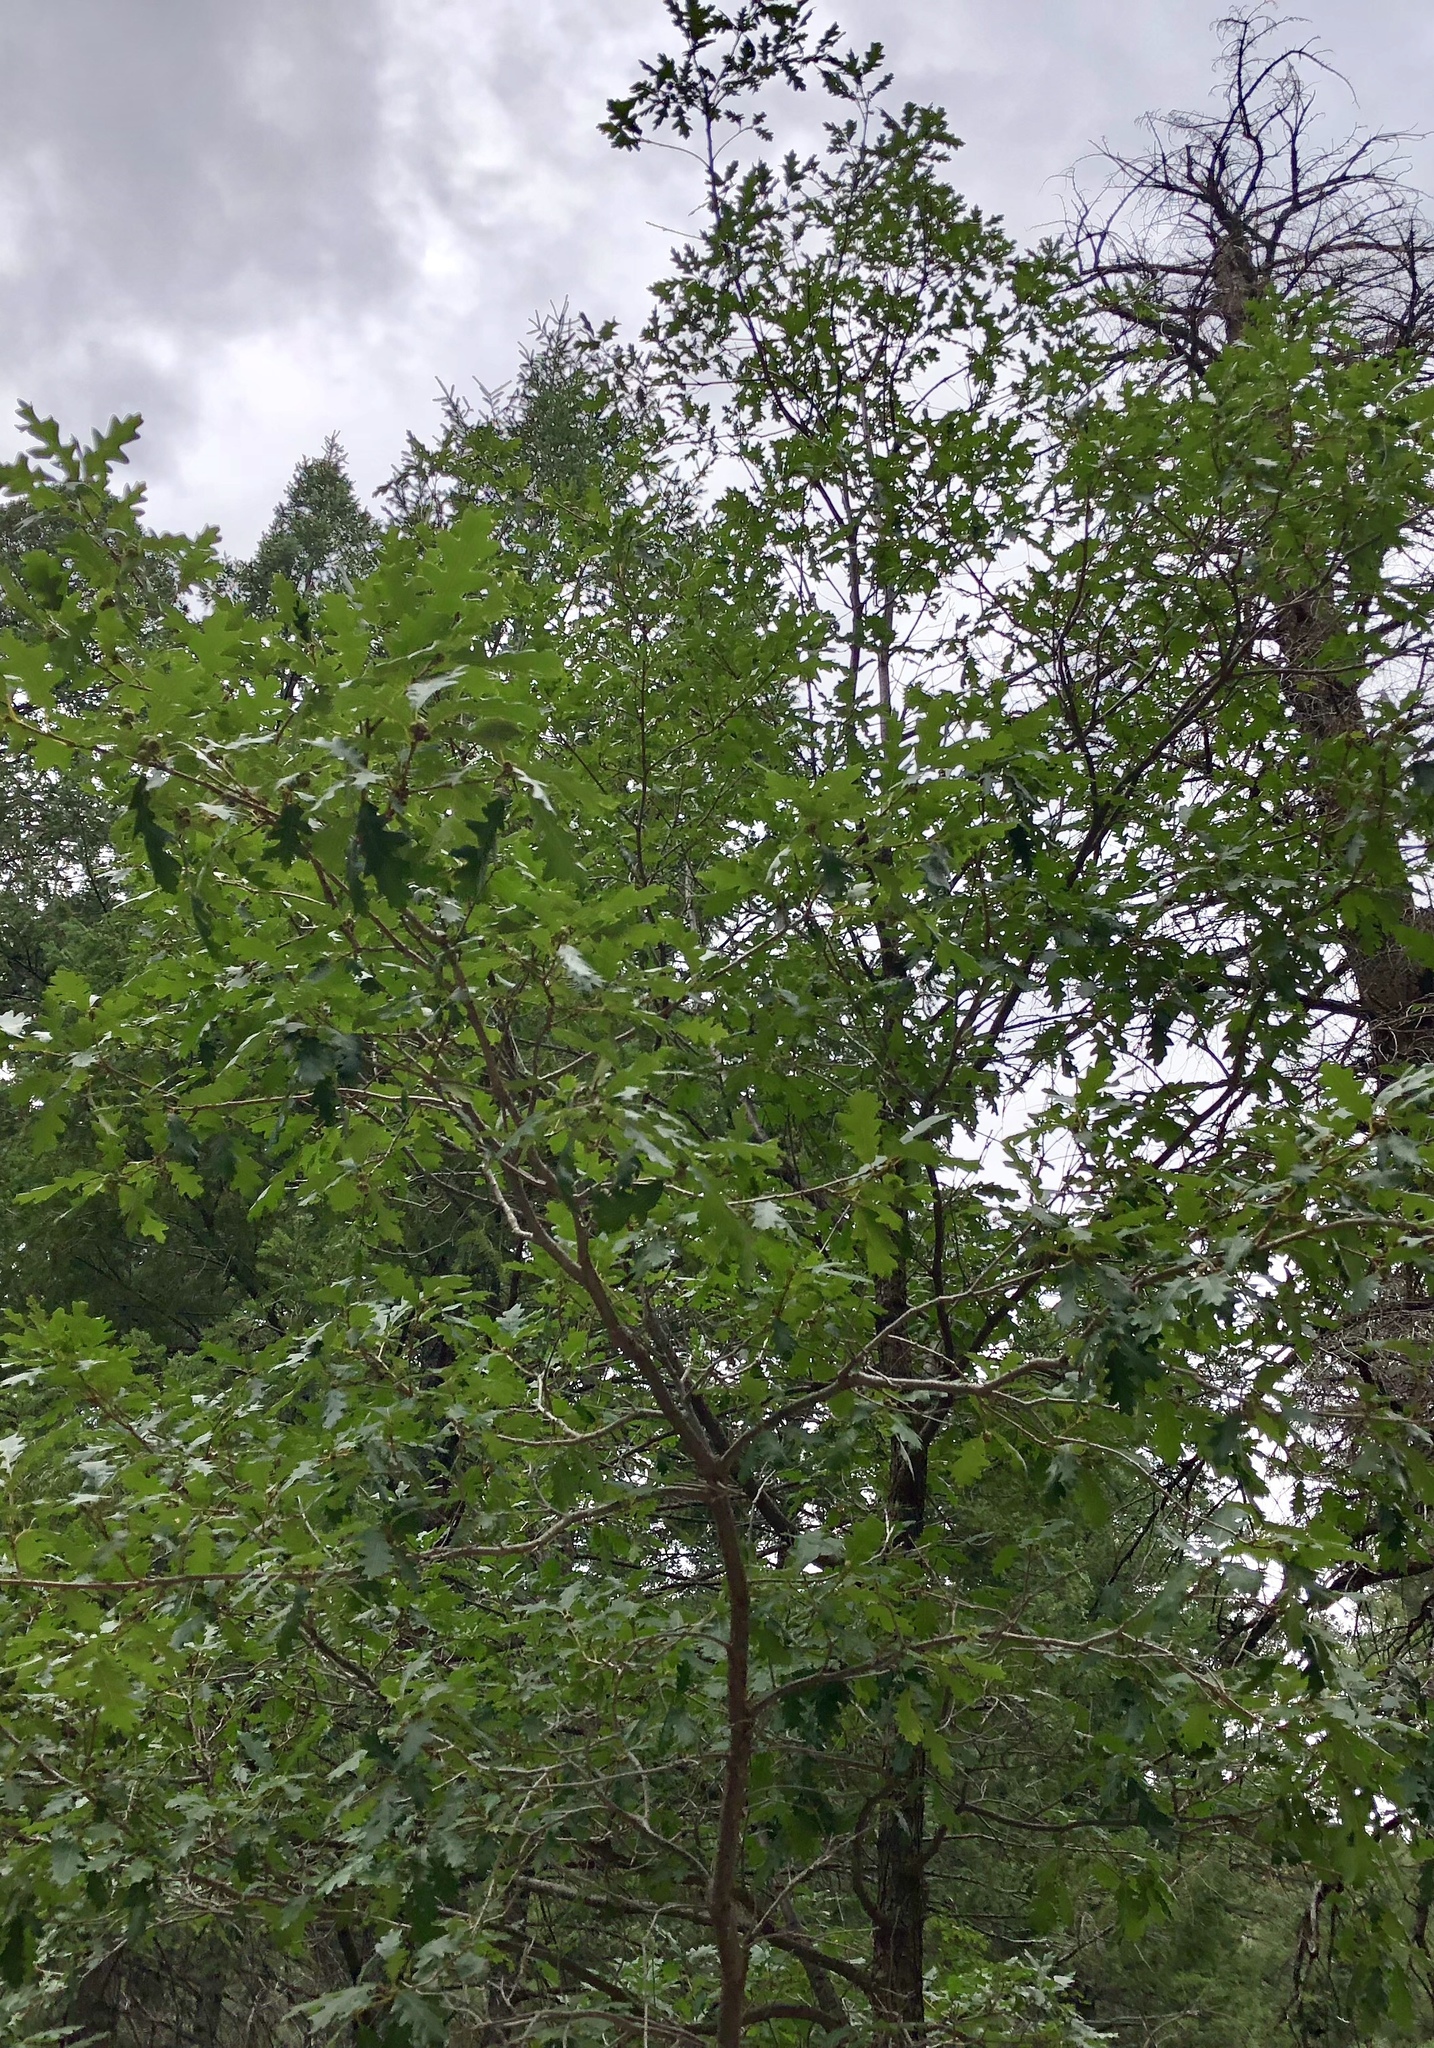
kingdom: Plantae
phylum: Tracheophyta
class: Magnoliopsida
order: Fagales
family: Fagaceae
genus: Quercus
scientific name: Quercus gambelii
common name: Gambel oak
